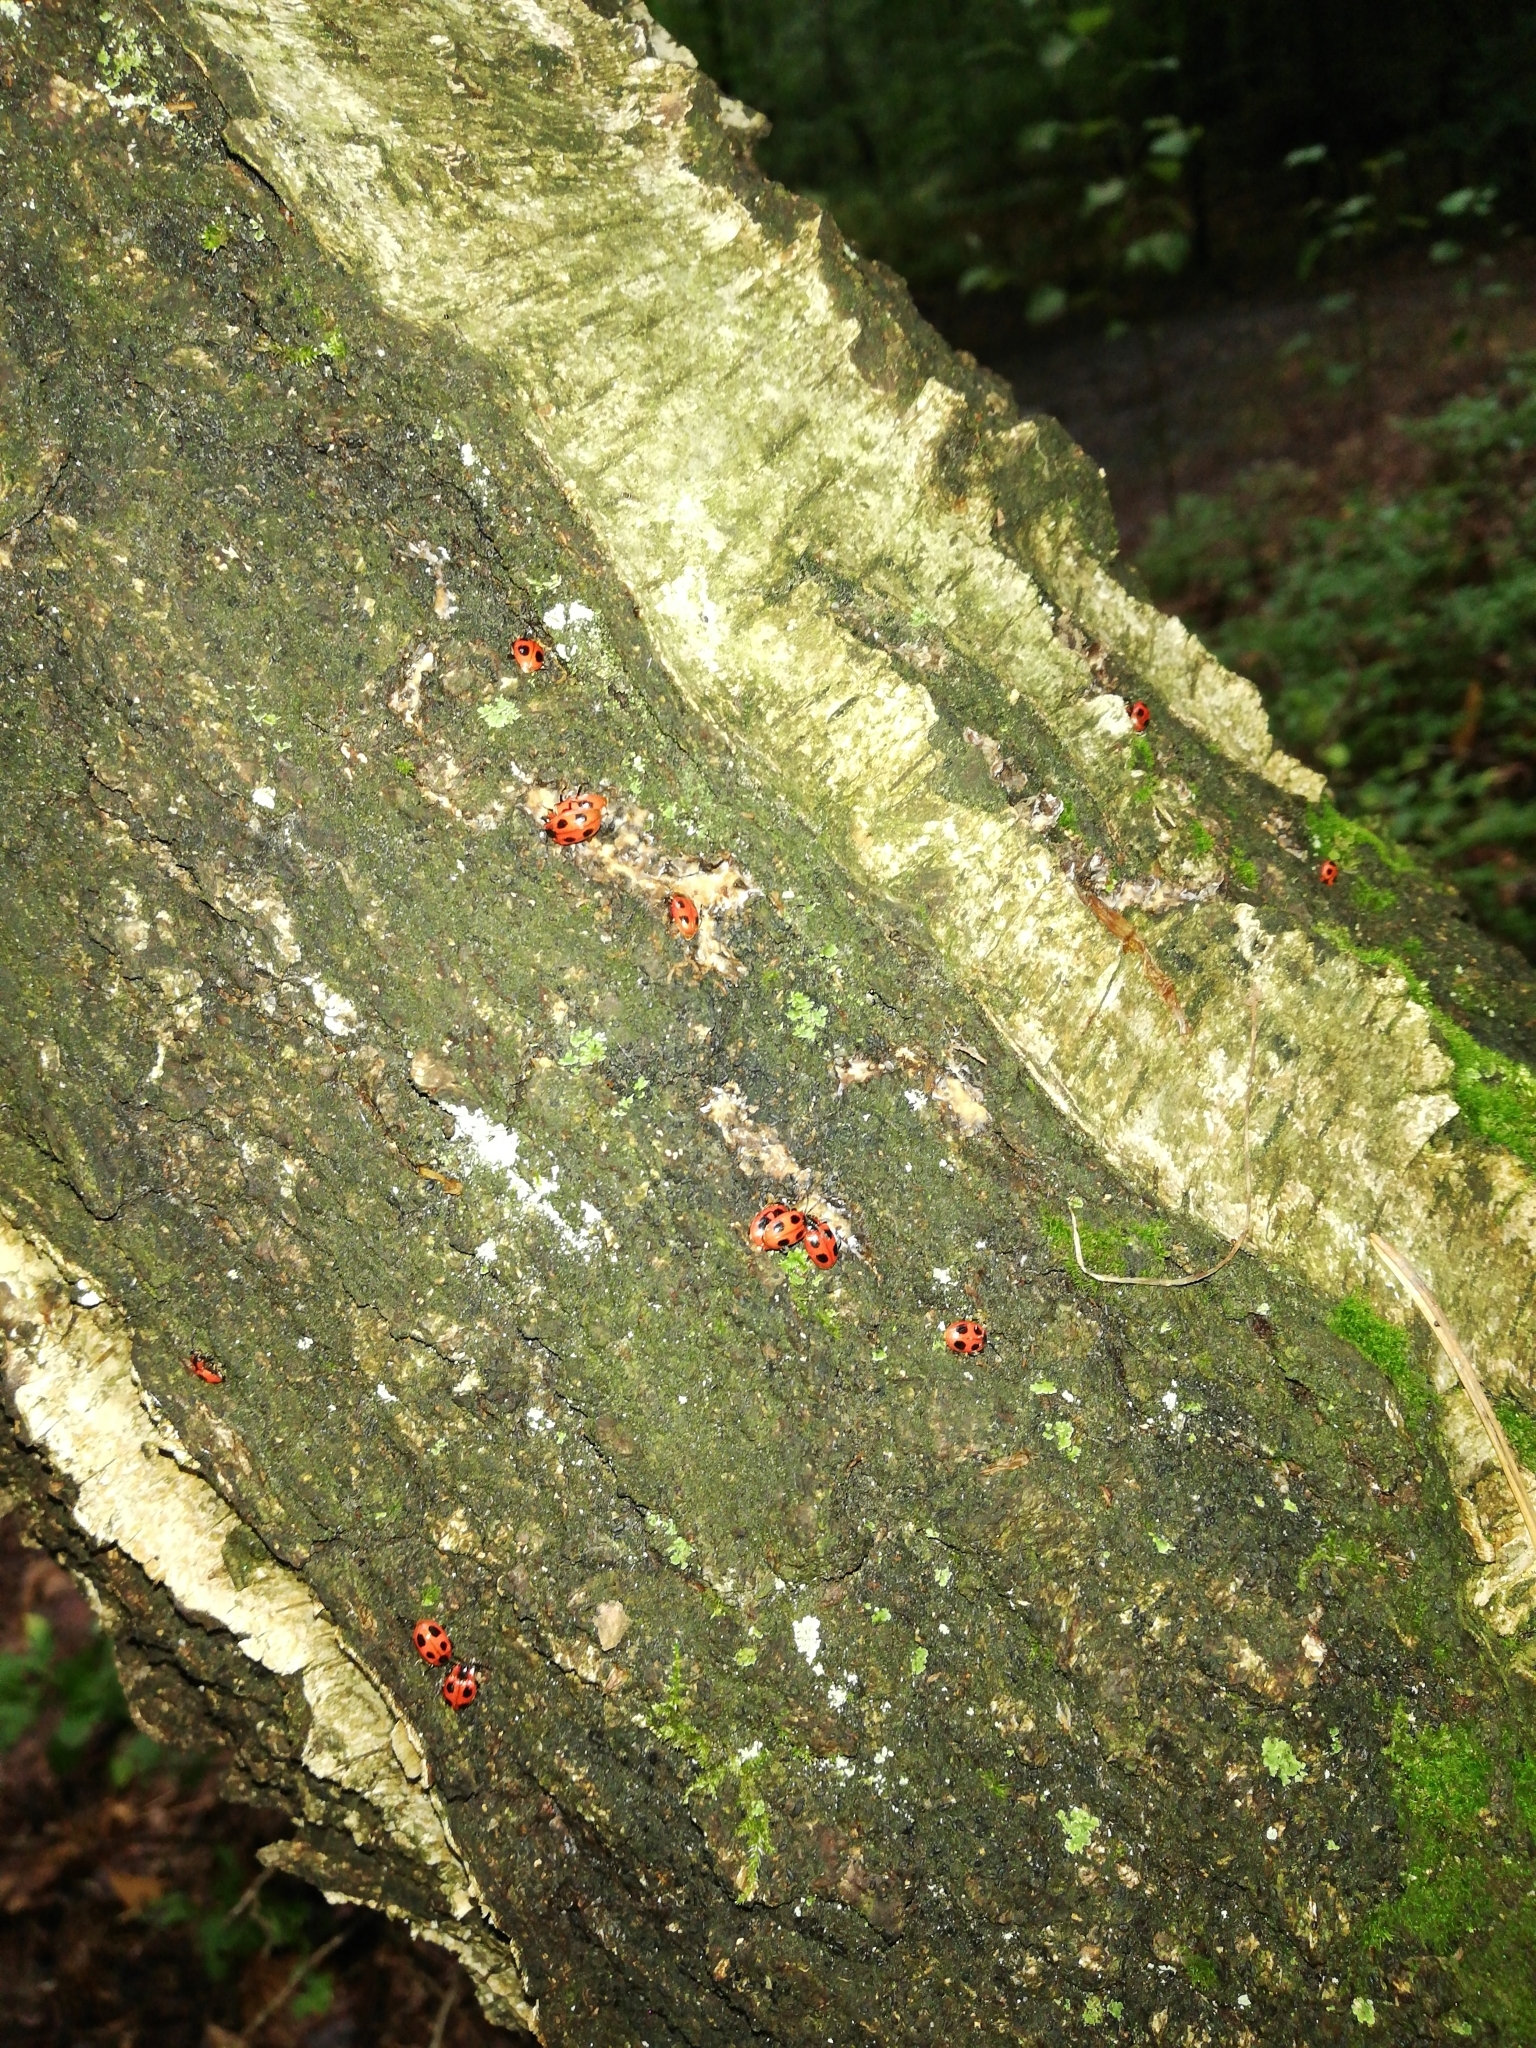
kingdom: Animalia
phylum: Arthropoda
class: Insecta
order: Coleoptera
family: Endomychidae
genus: Endomychus
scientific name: Endomychus coccineus
